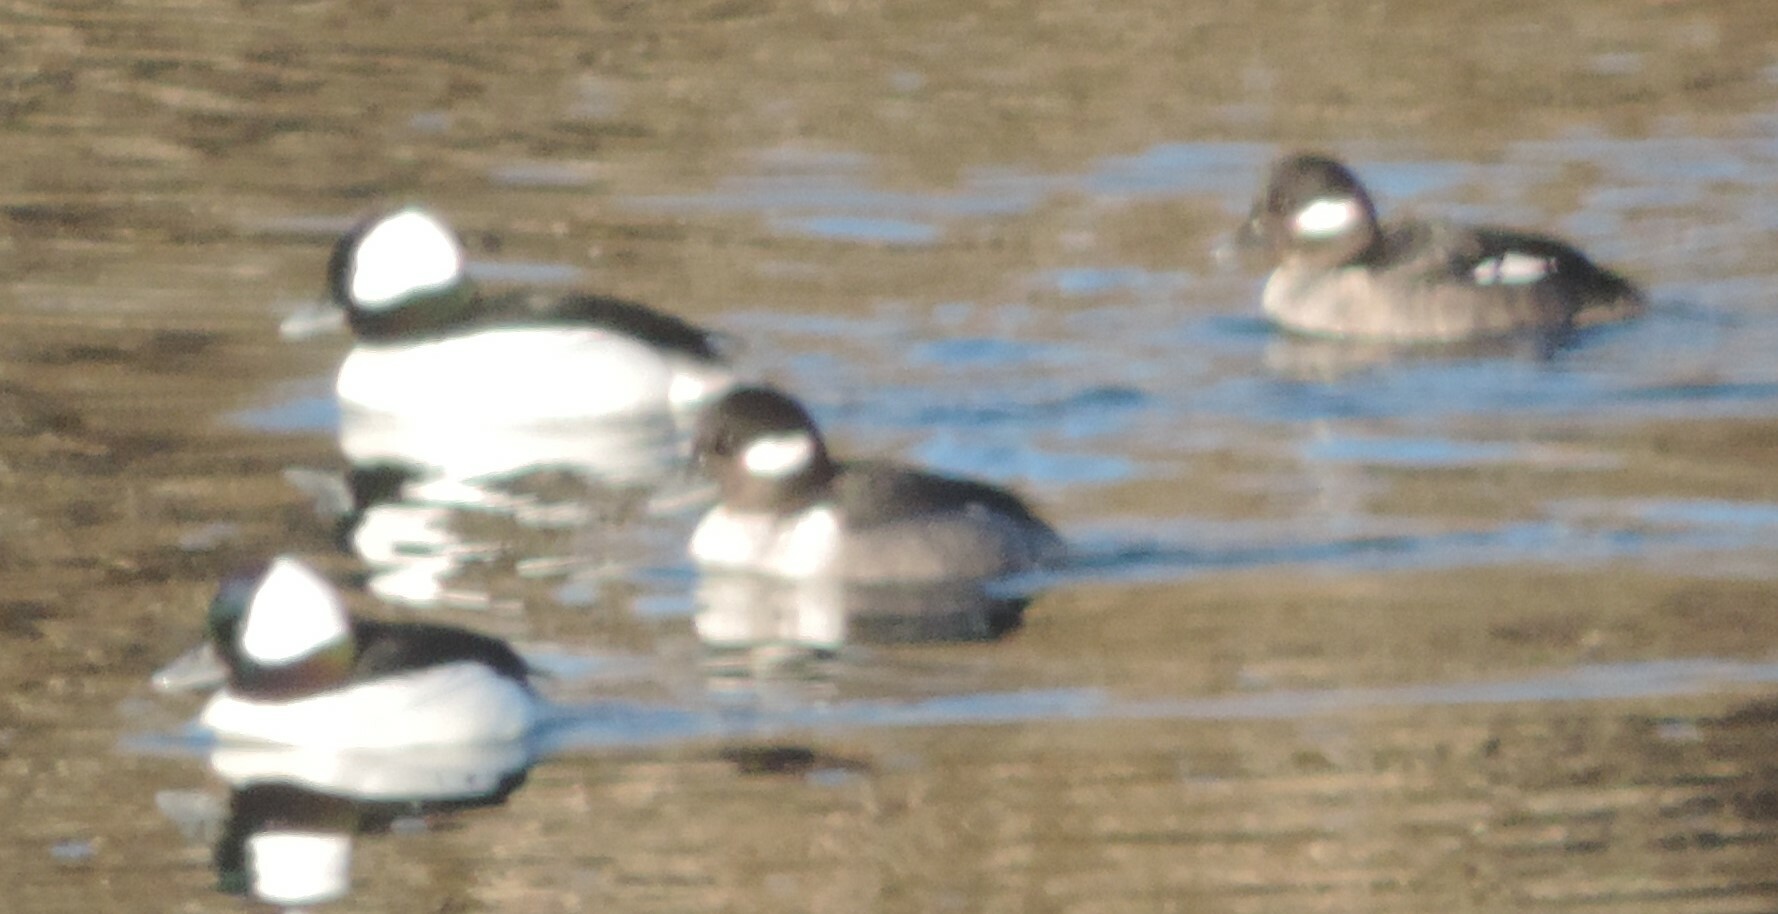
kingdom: Animalia
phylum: Chordata
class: Aves
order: Anseriformes
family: Anatidae
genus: Bucephala
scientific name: Bucephala albeola
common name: Bufflehead
